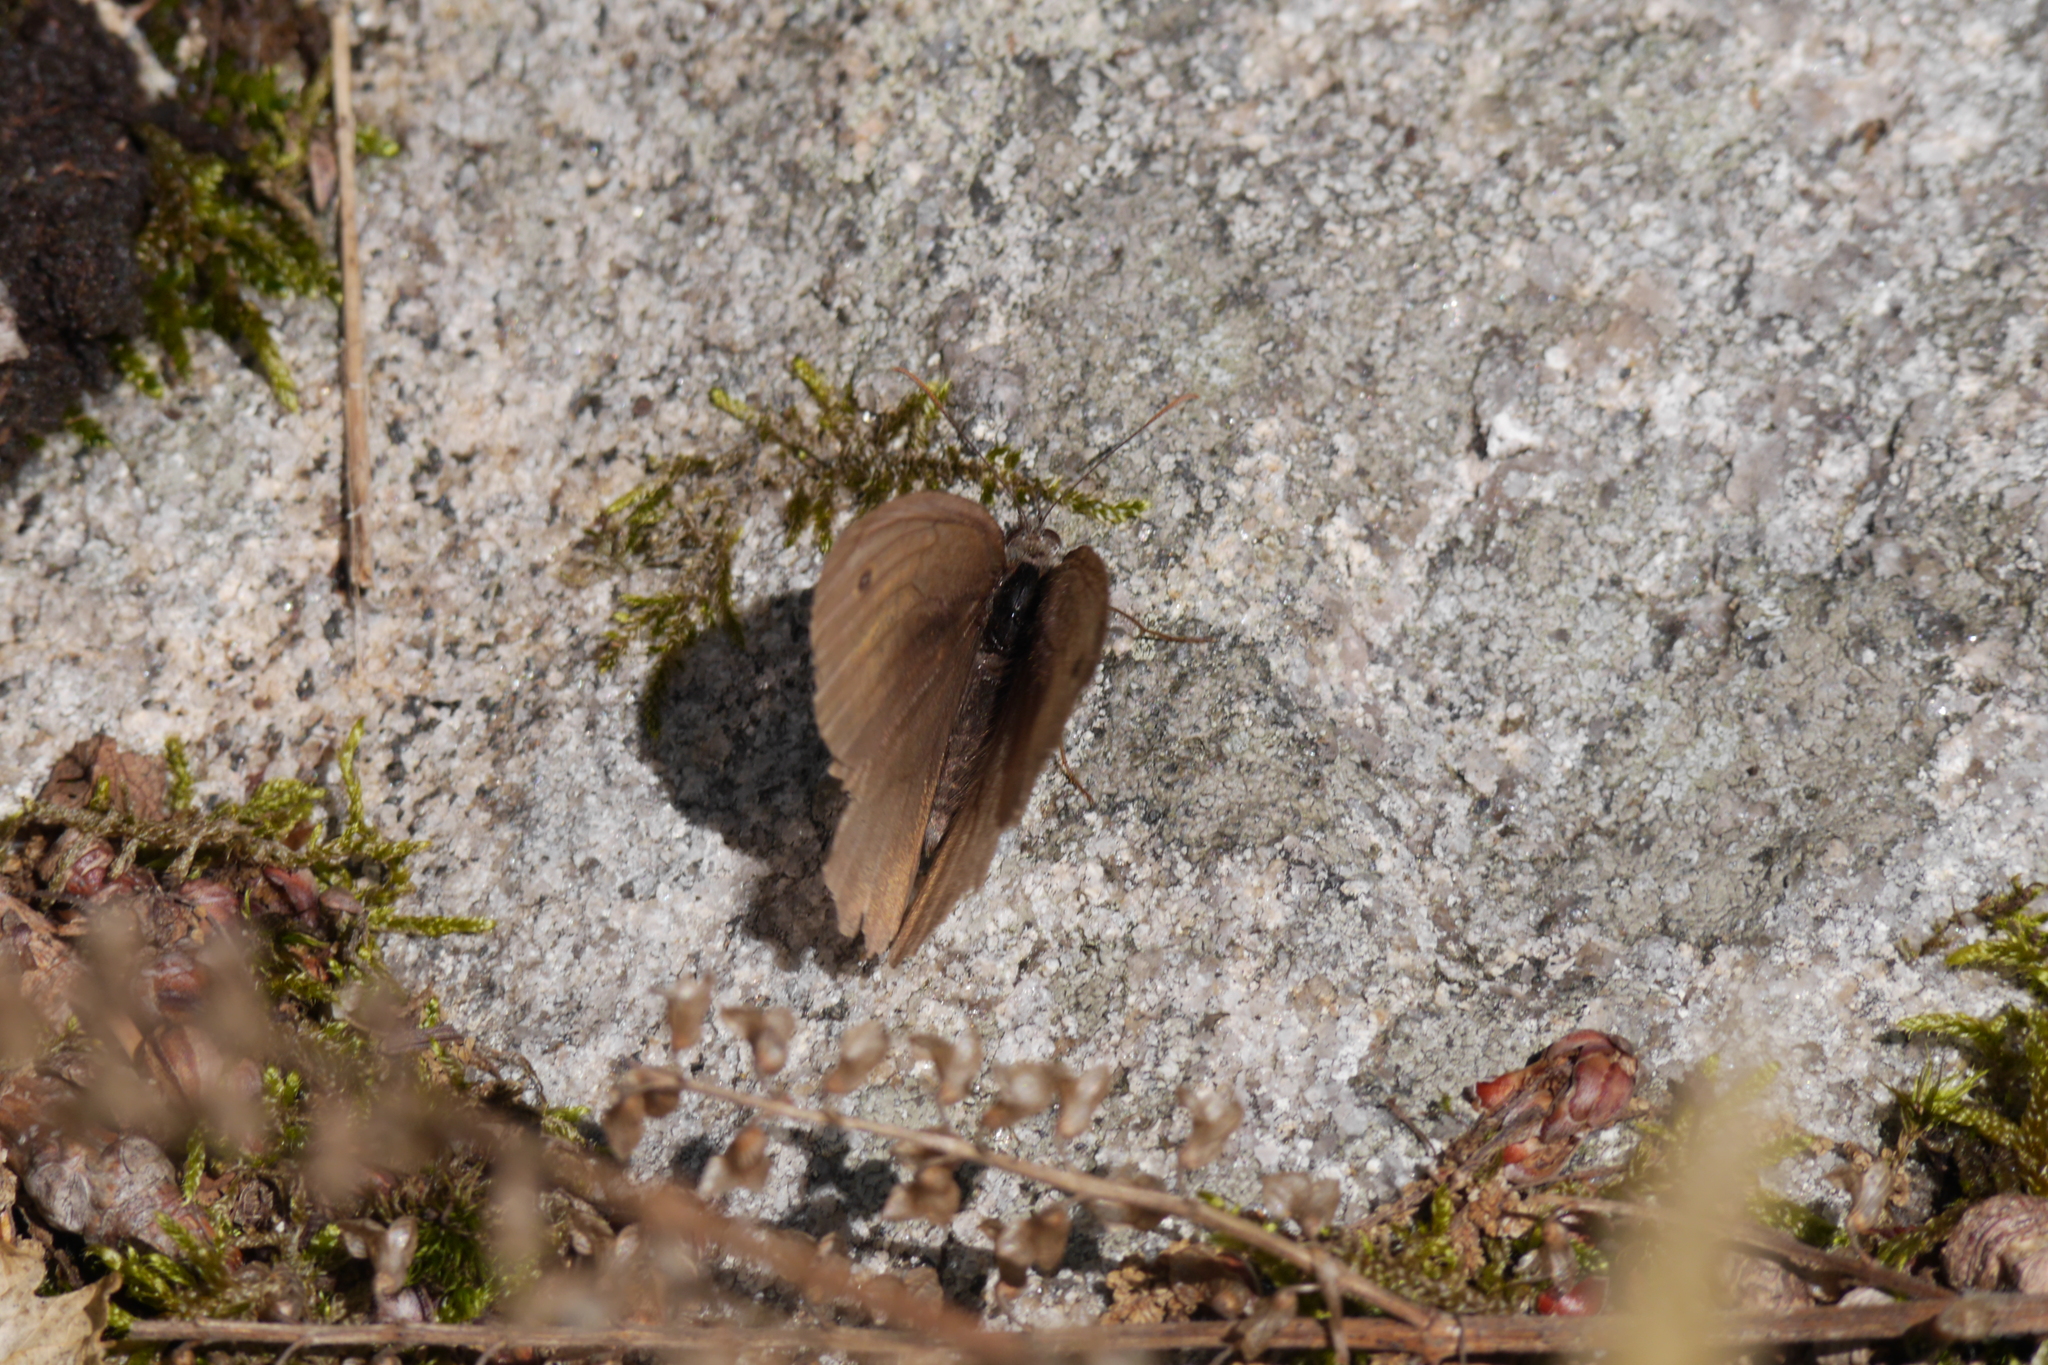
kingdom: Animalia
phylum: Arthropoda
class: Insecta
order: Lepidoptera
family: Nymphalidae
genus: Maniola
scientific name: Maniola jurtina
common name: Meadow brown
